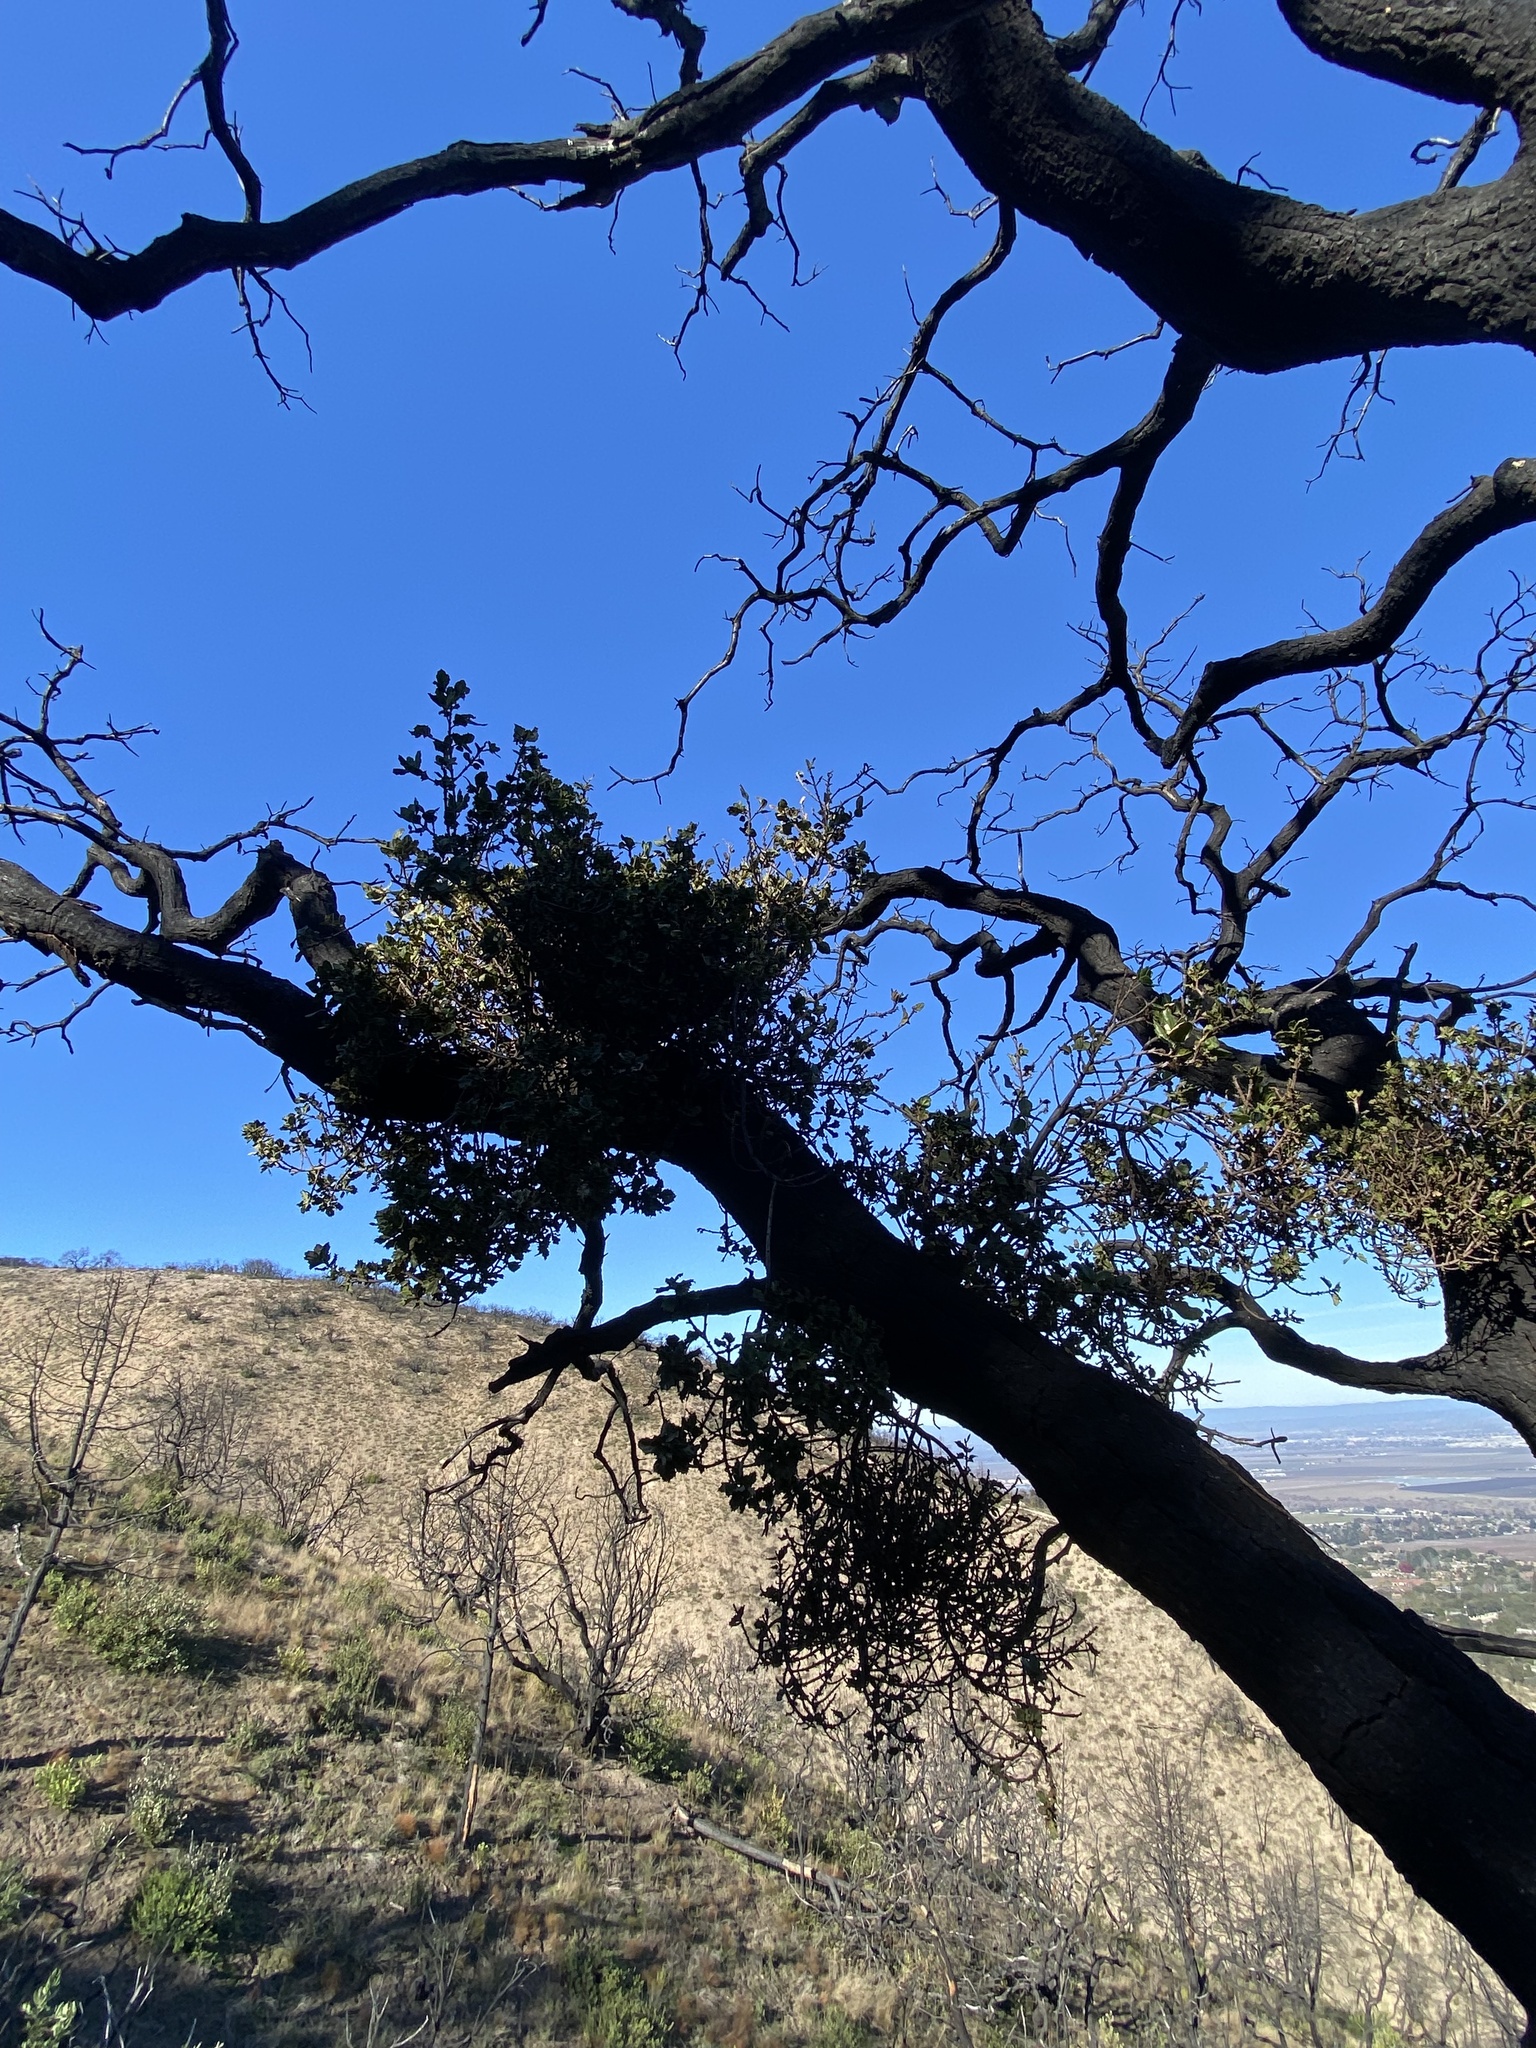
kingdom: Plantae
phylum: Tracheophyta
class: Magnoliopsida
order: Fagales
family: Fagaceae
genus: Quercus
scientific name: Quercus agrifolia
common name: California live oak
